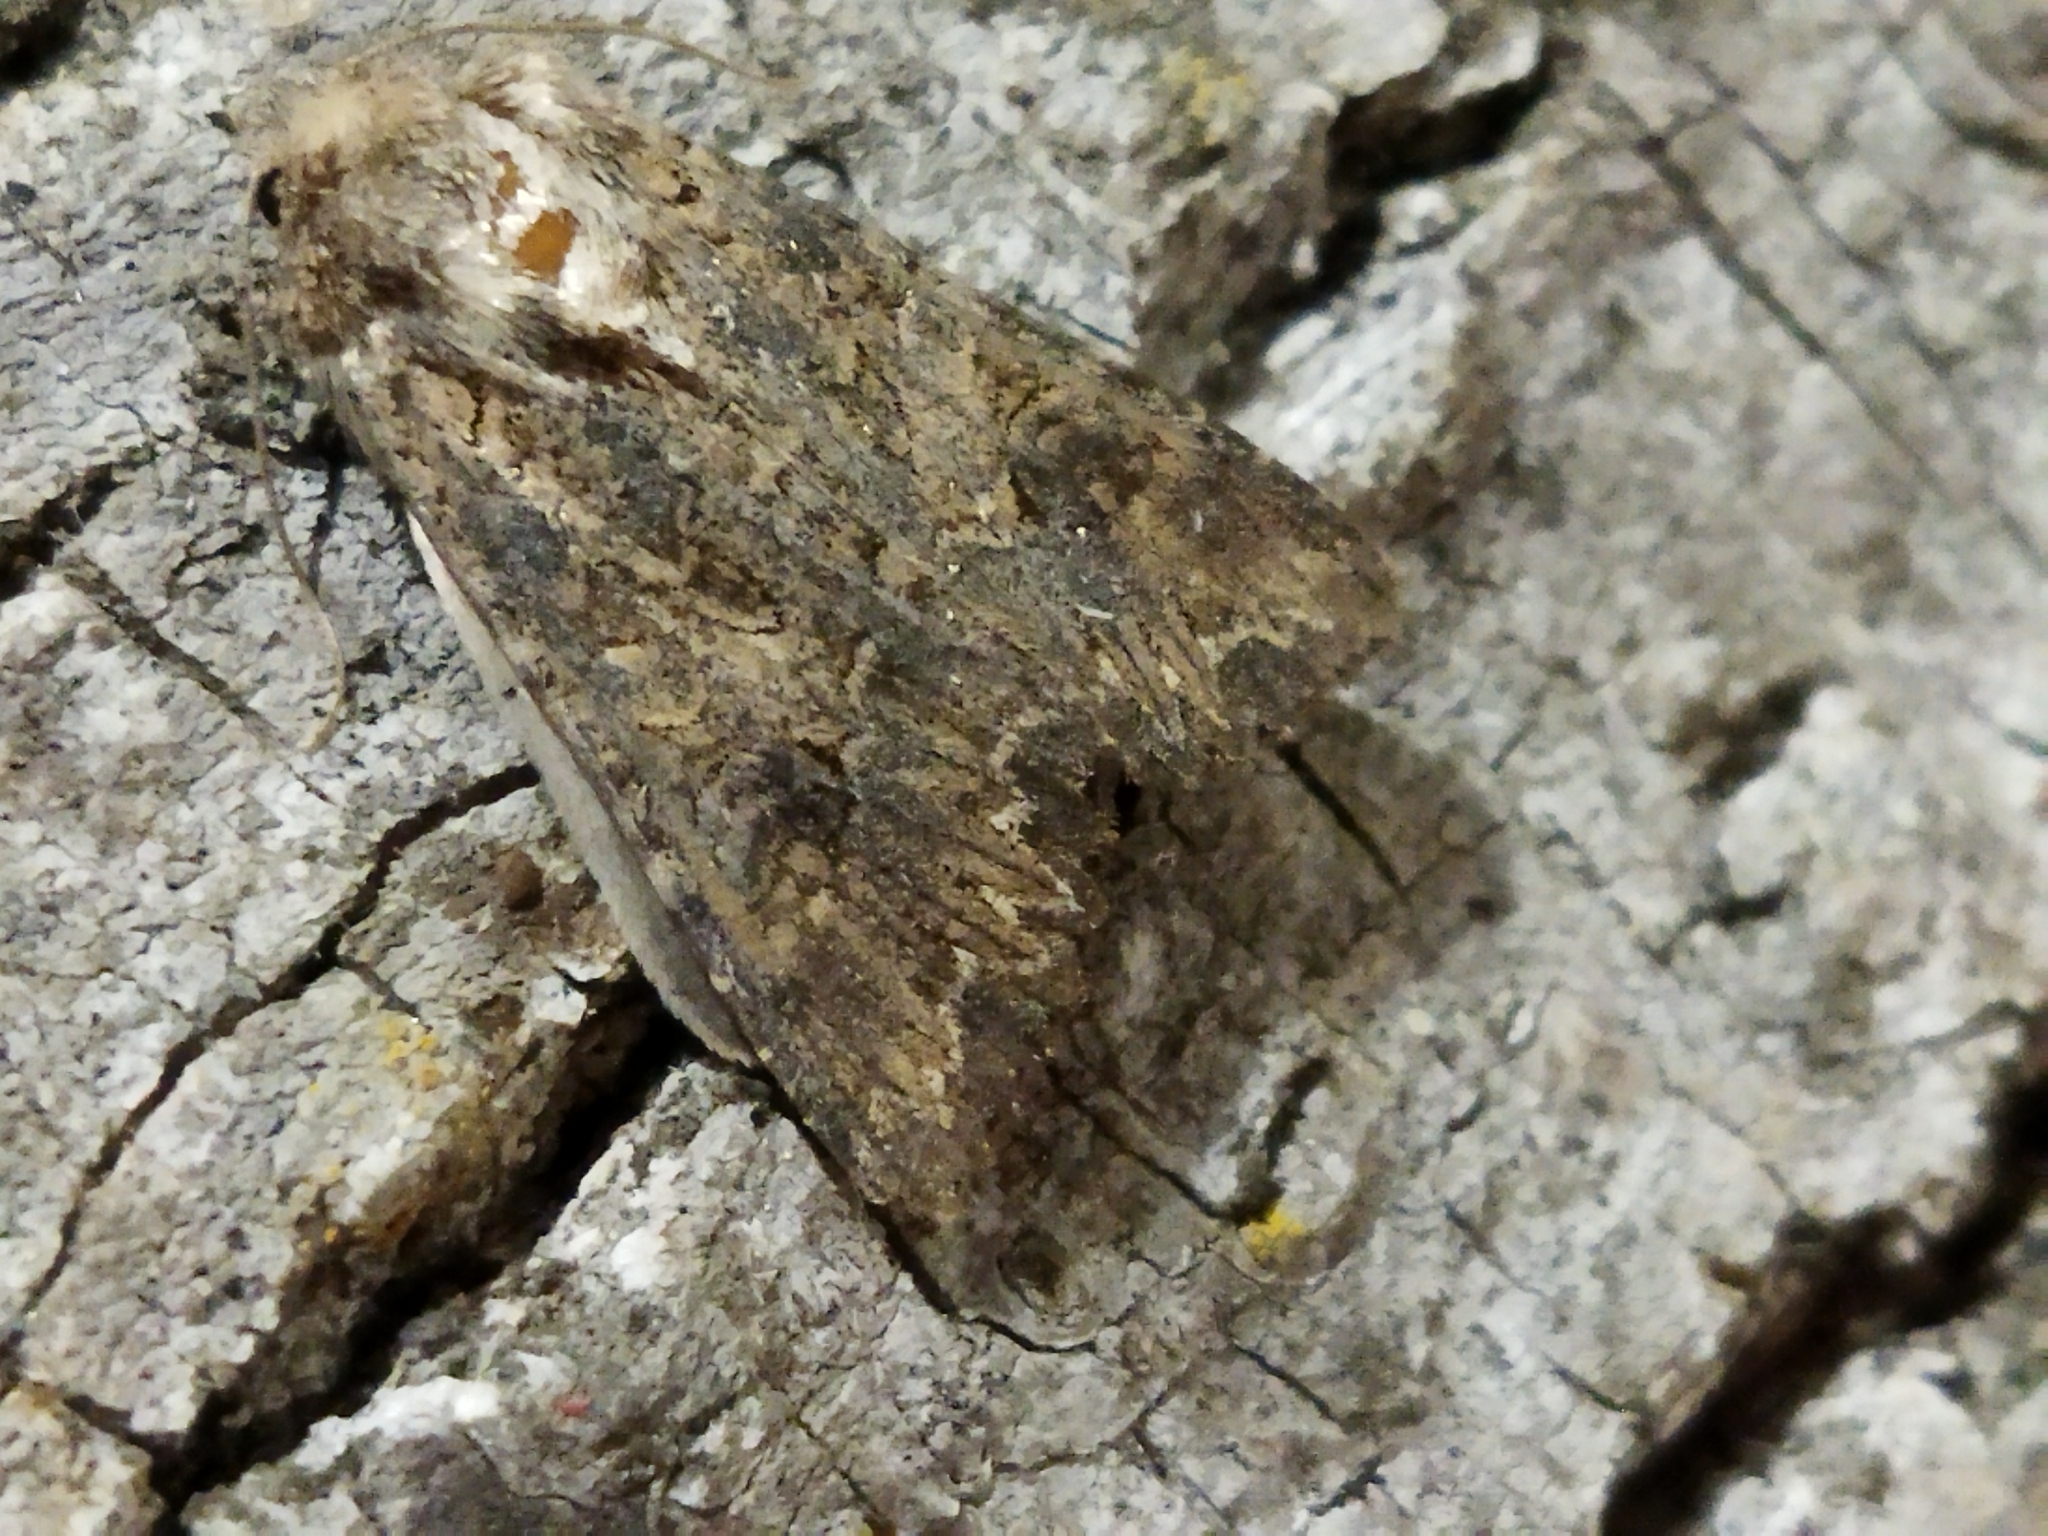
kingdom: Animalia
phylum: Arthropoda
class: Insecta
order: Lepidoptera
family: Noctuidae
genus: Anarta
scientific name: Anarta trifolii
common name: Clover cutworm moth
